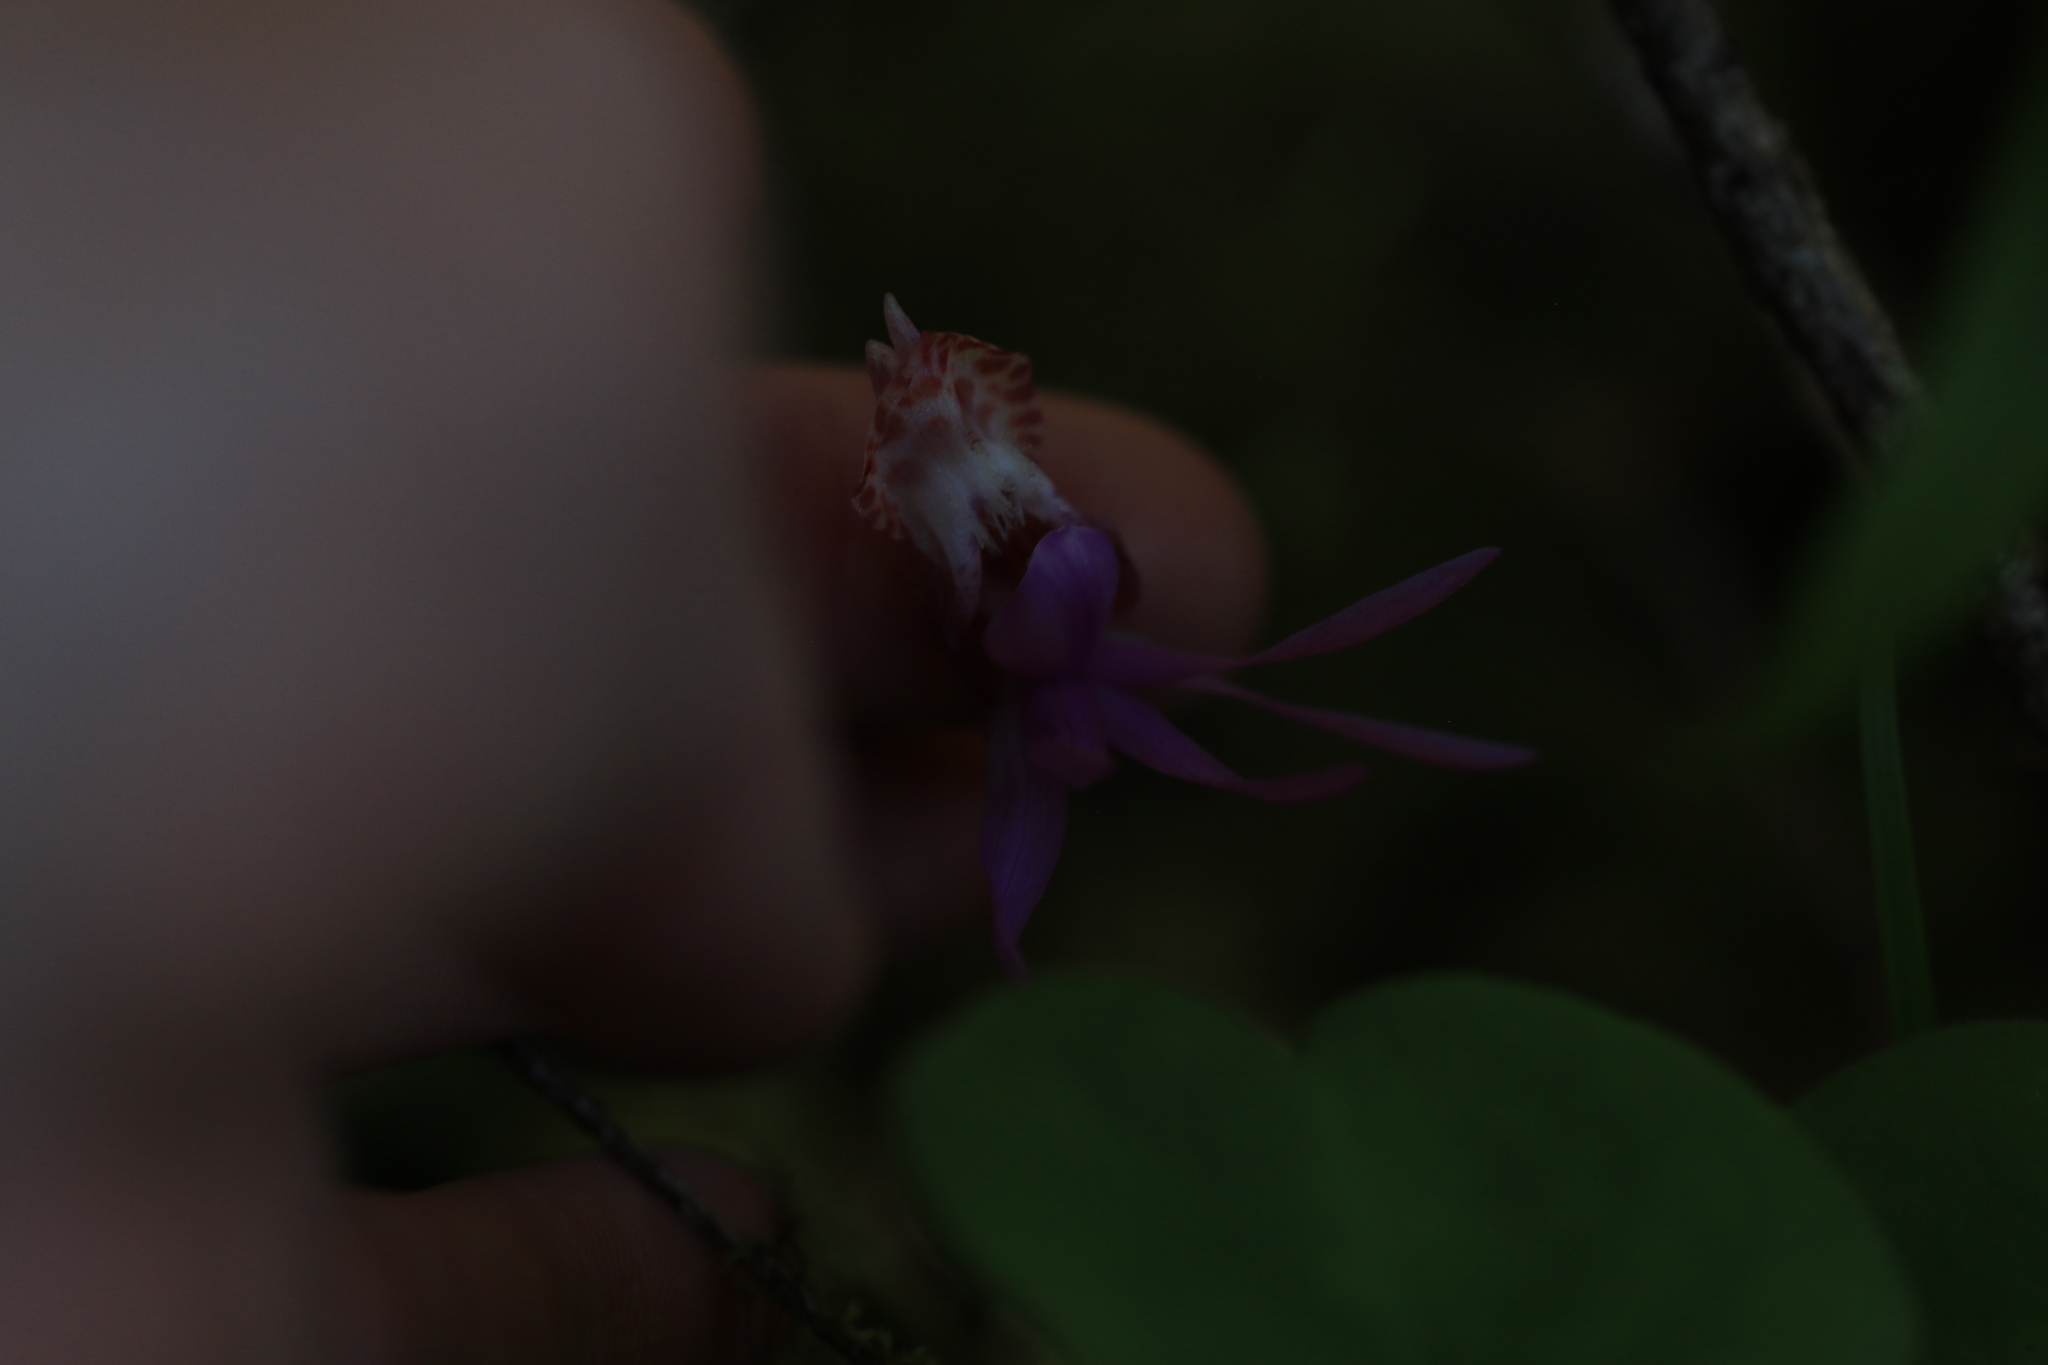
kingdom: Plantae
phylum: Tracheophyta
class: Liliopsida
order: Asparagales
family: Orchidaceae
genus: Calypso
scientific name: Calypso bulbosa
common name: Calypso
